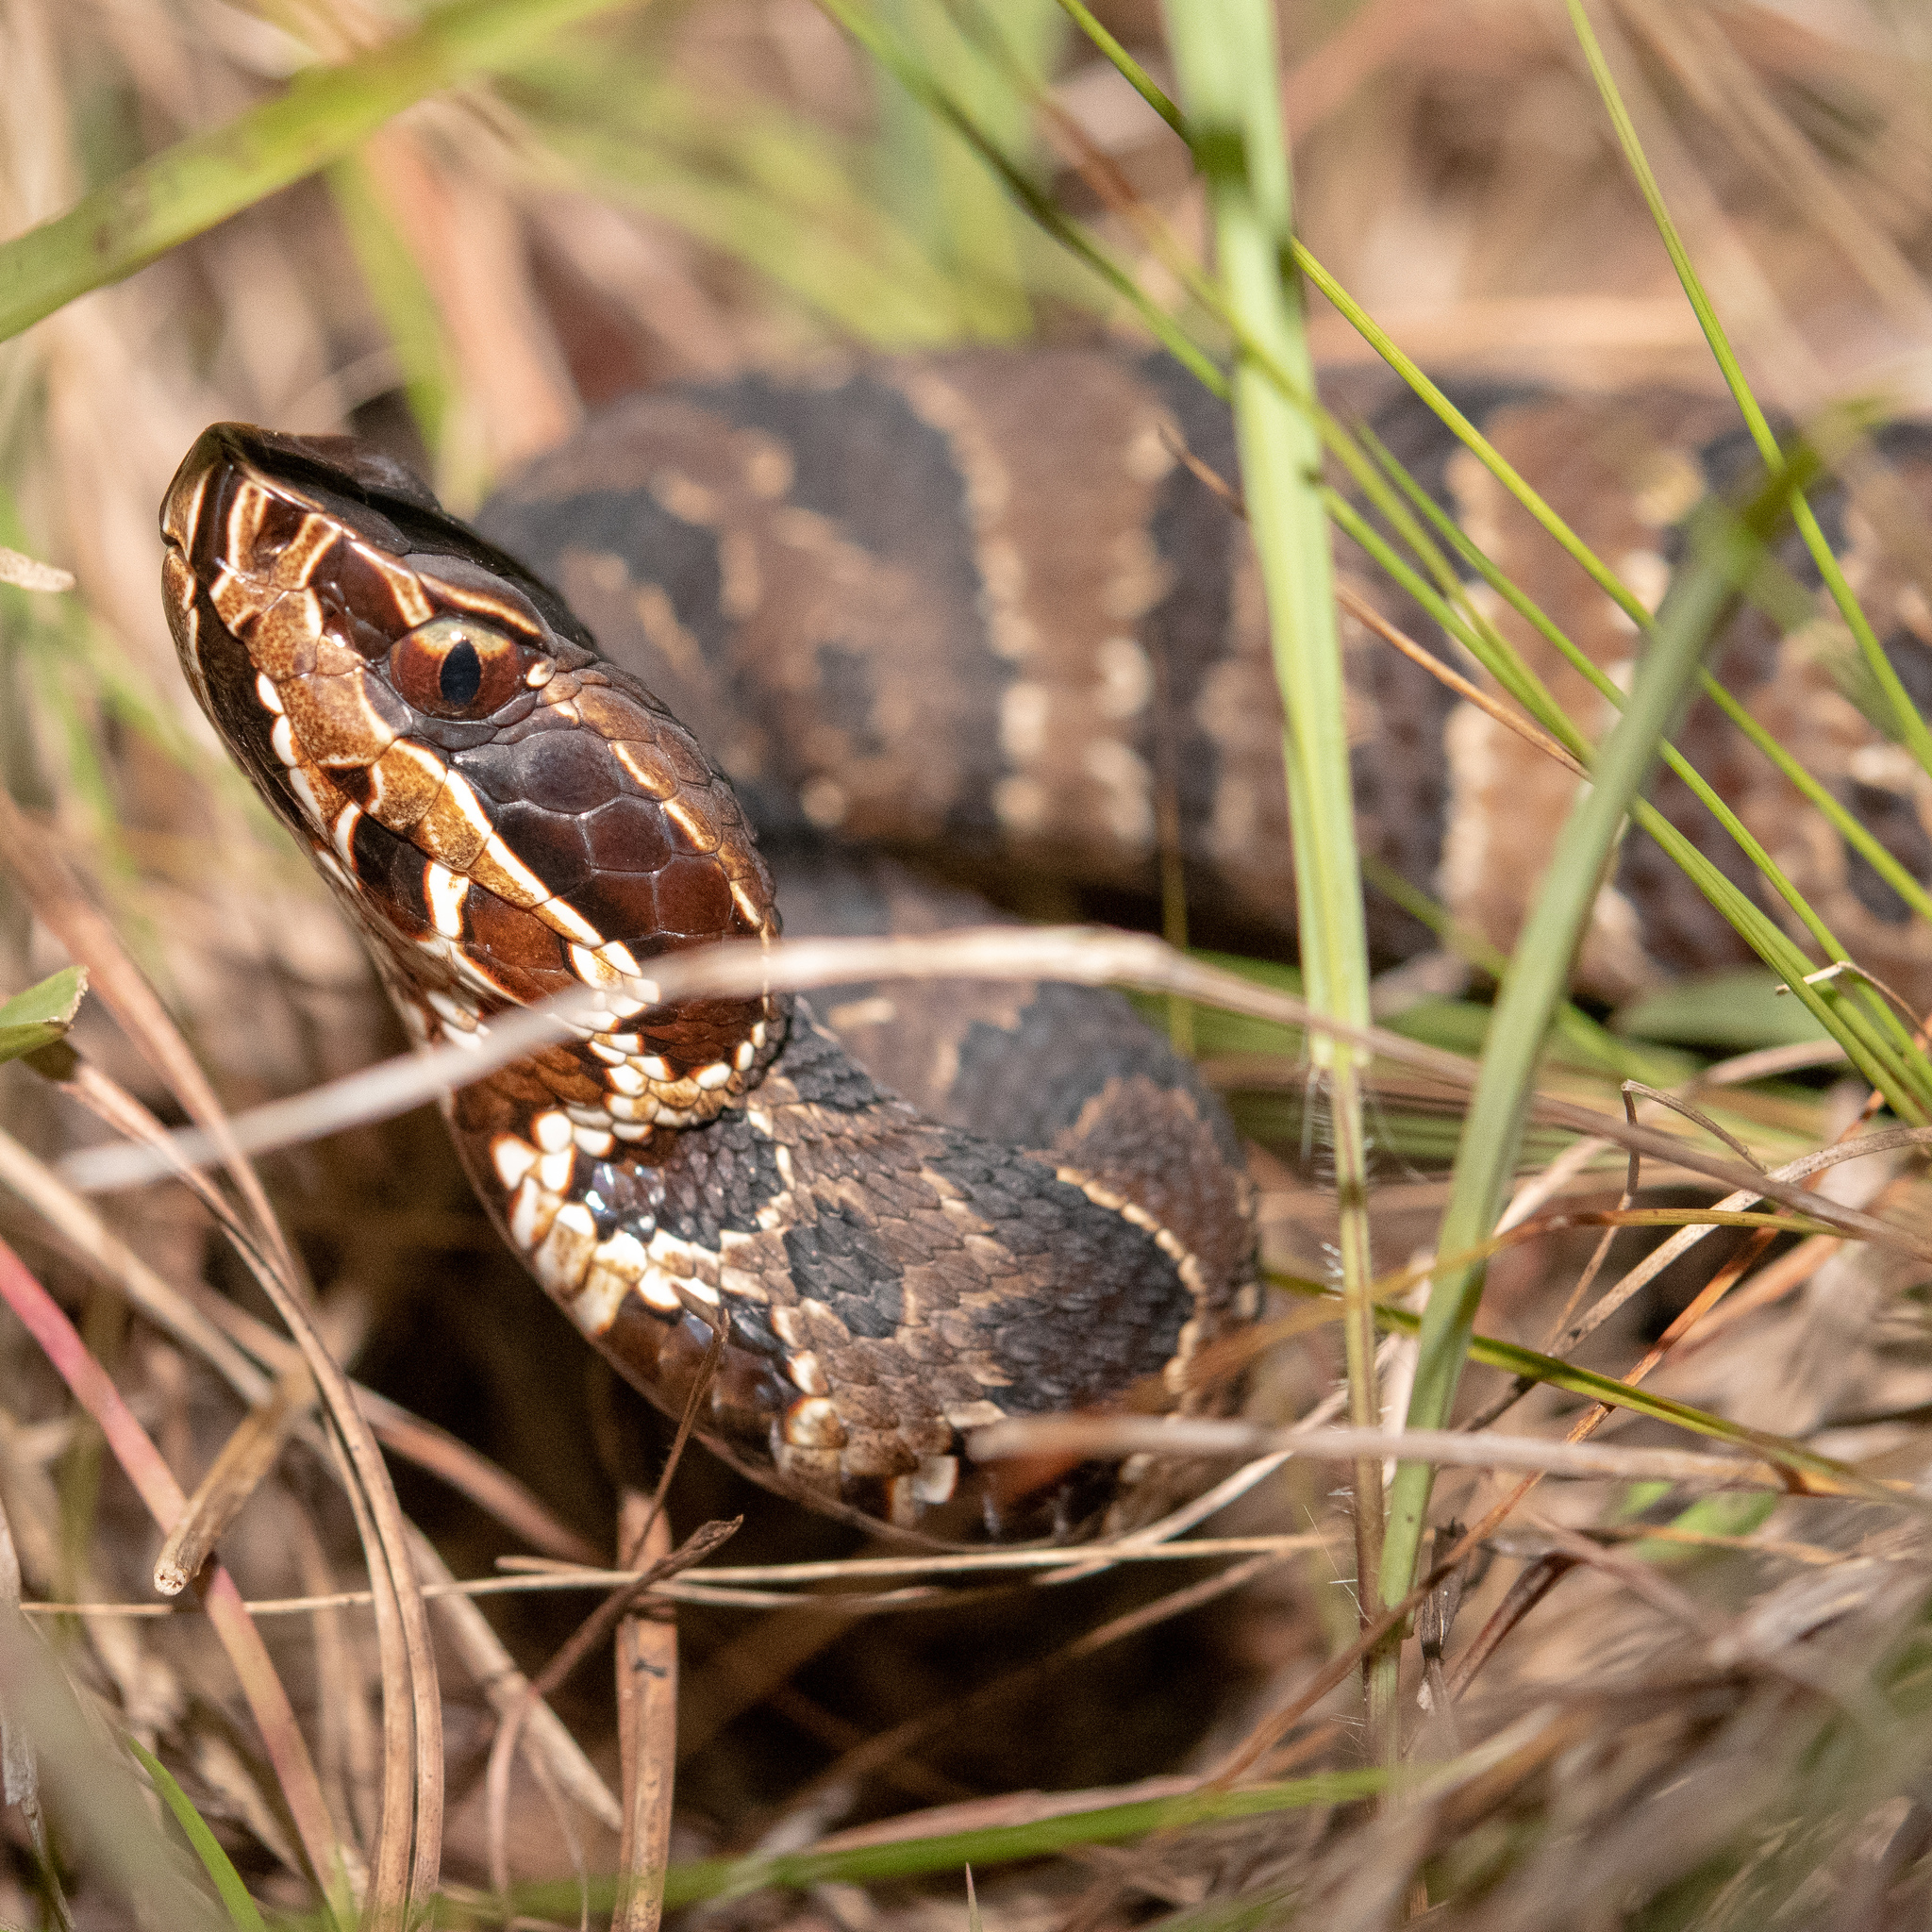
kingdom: Animalia
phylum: Chordata
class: Squamata
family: Viperidae
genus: Agkistrodon
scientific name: Agkistrodon conanti
